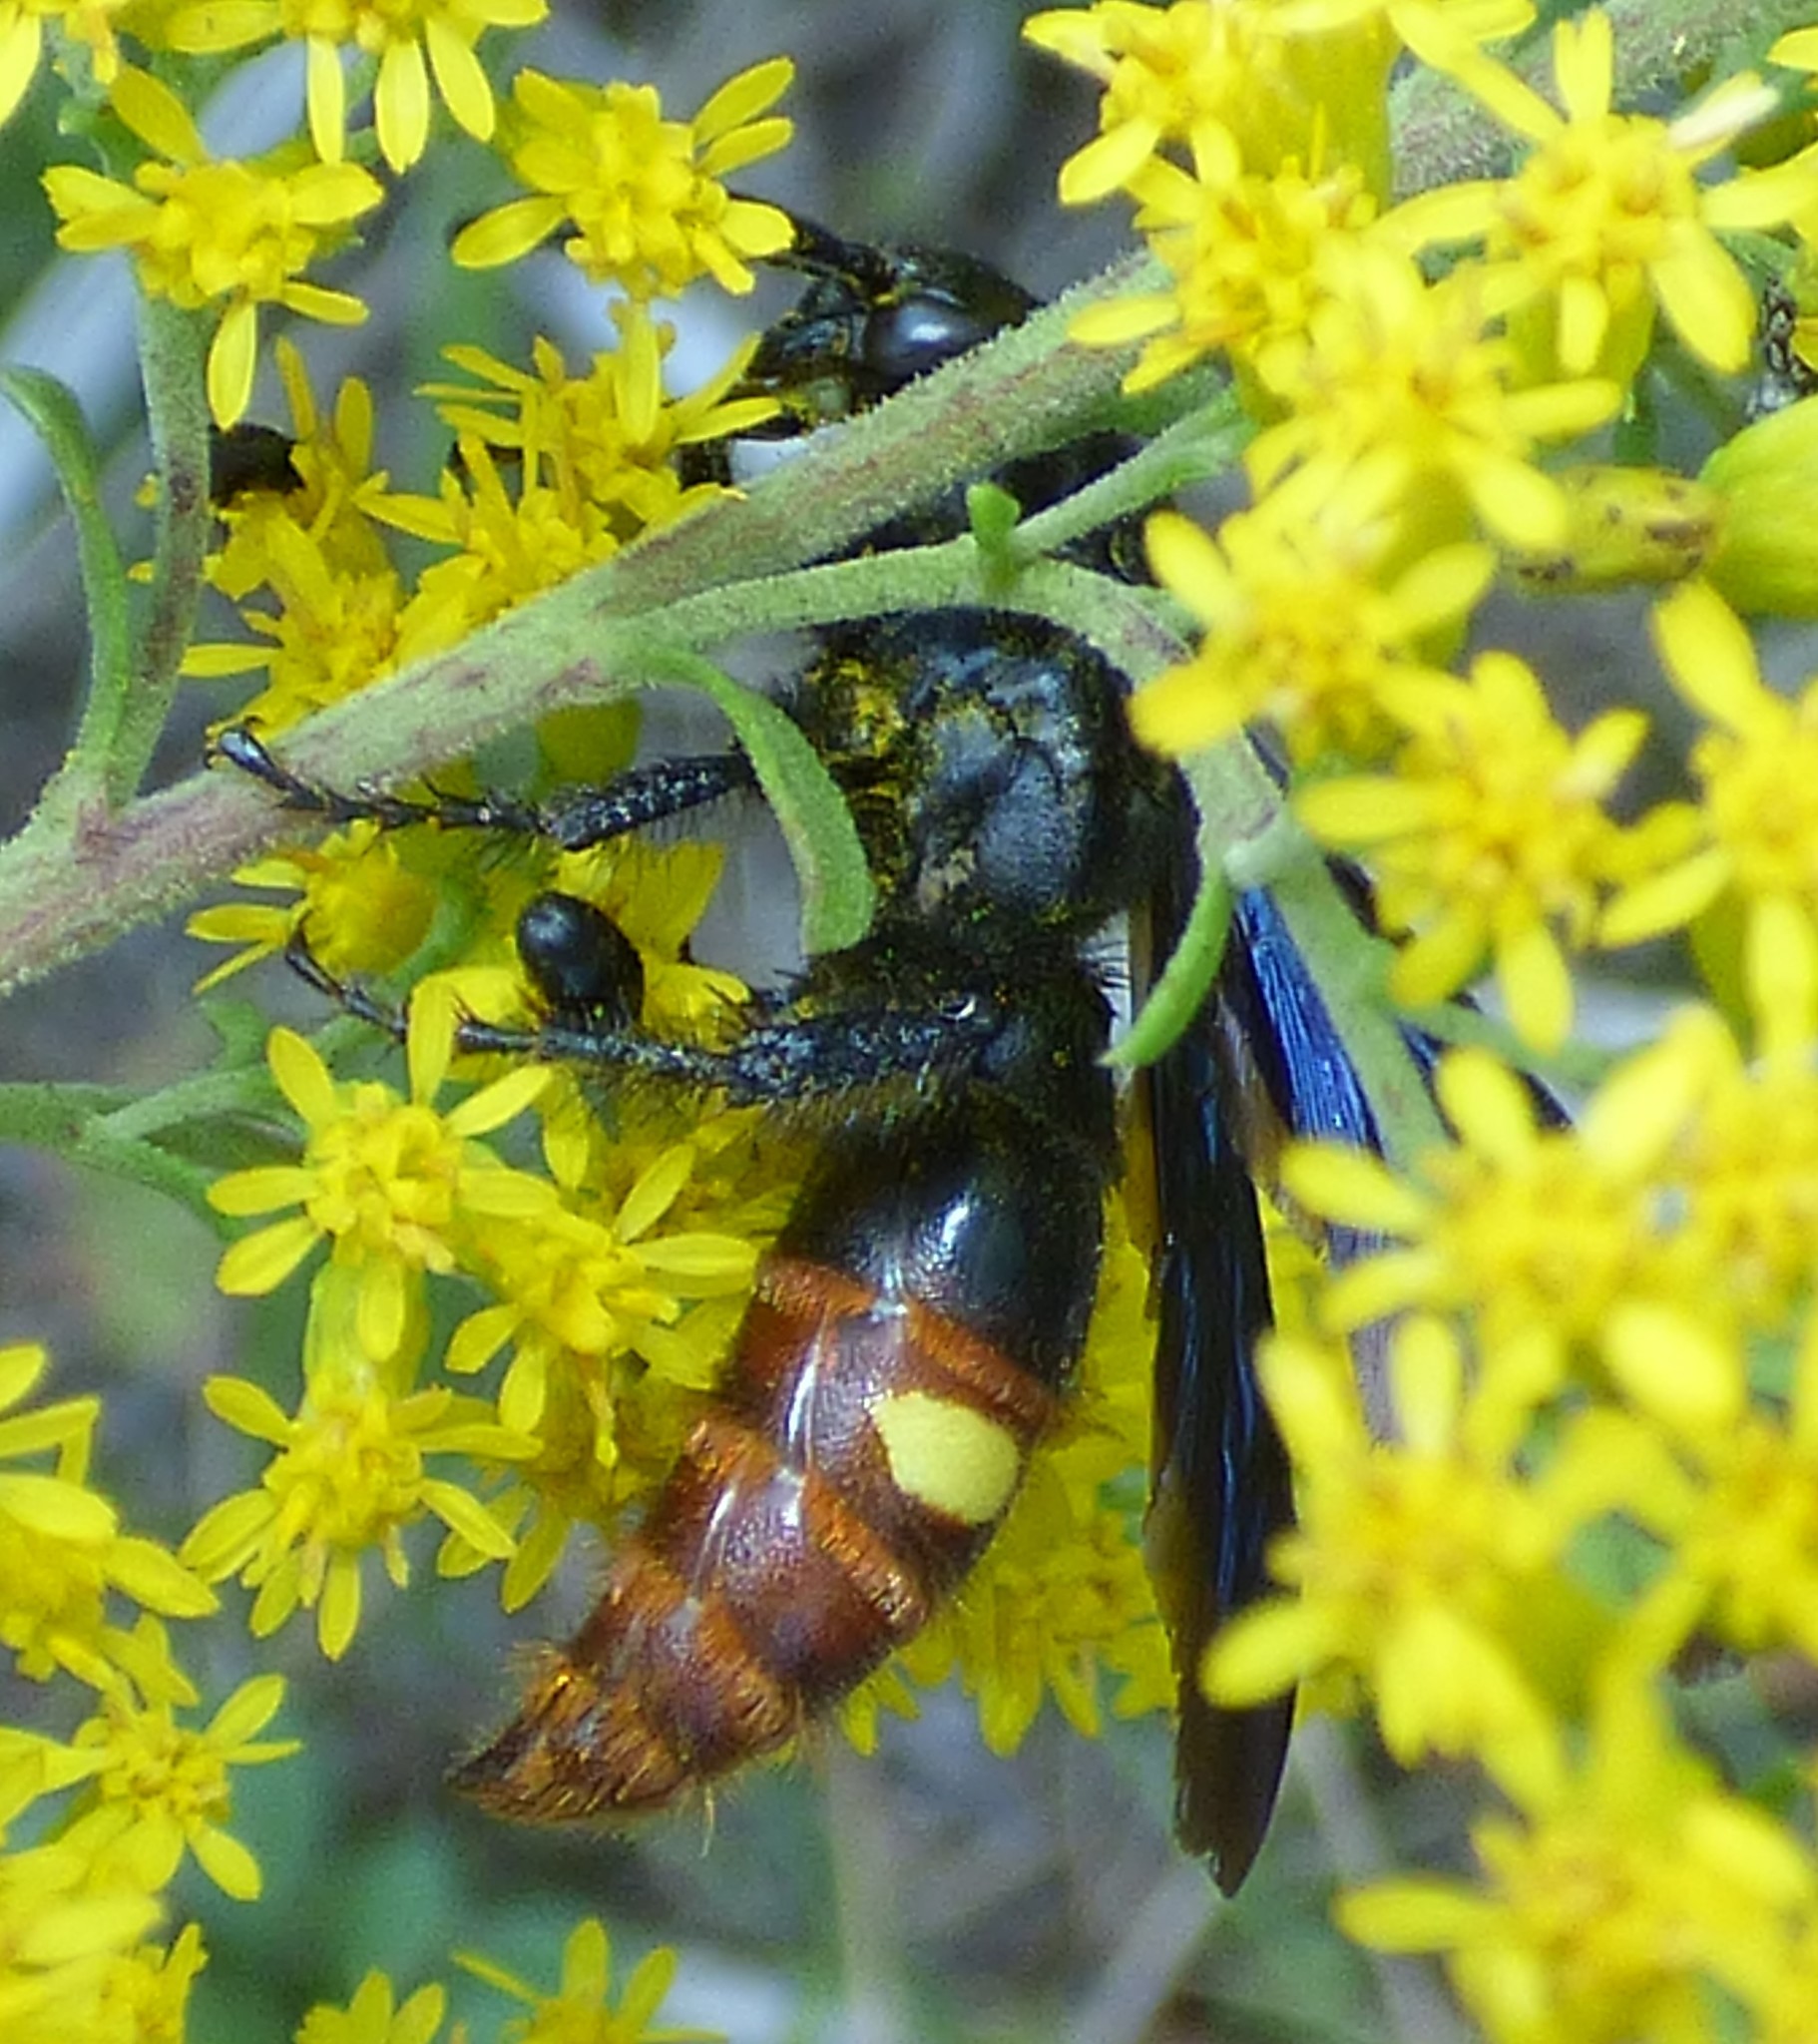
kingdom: Animalia
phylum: Arthropoda
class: Insecta
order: Hymenoptera
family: Scoliidae
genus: Scolia
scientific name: Scolia dubia
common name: Blue-winged scoliid wasp
